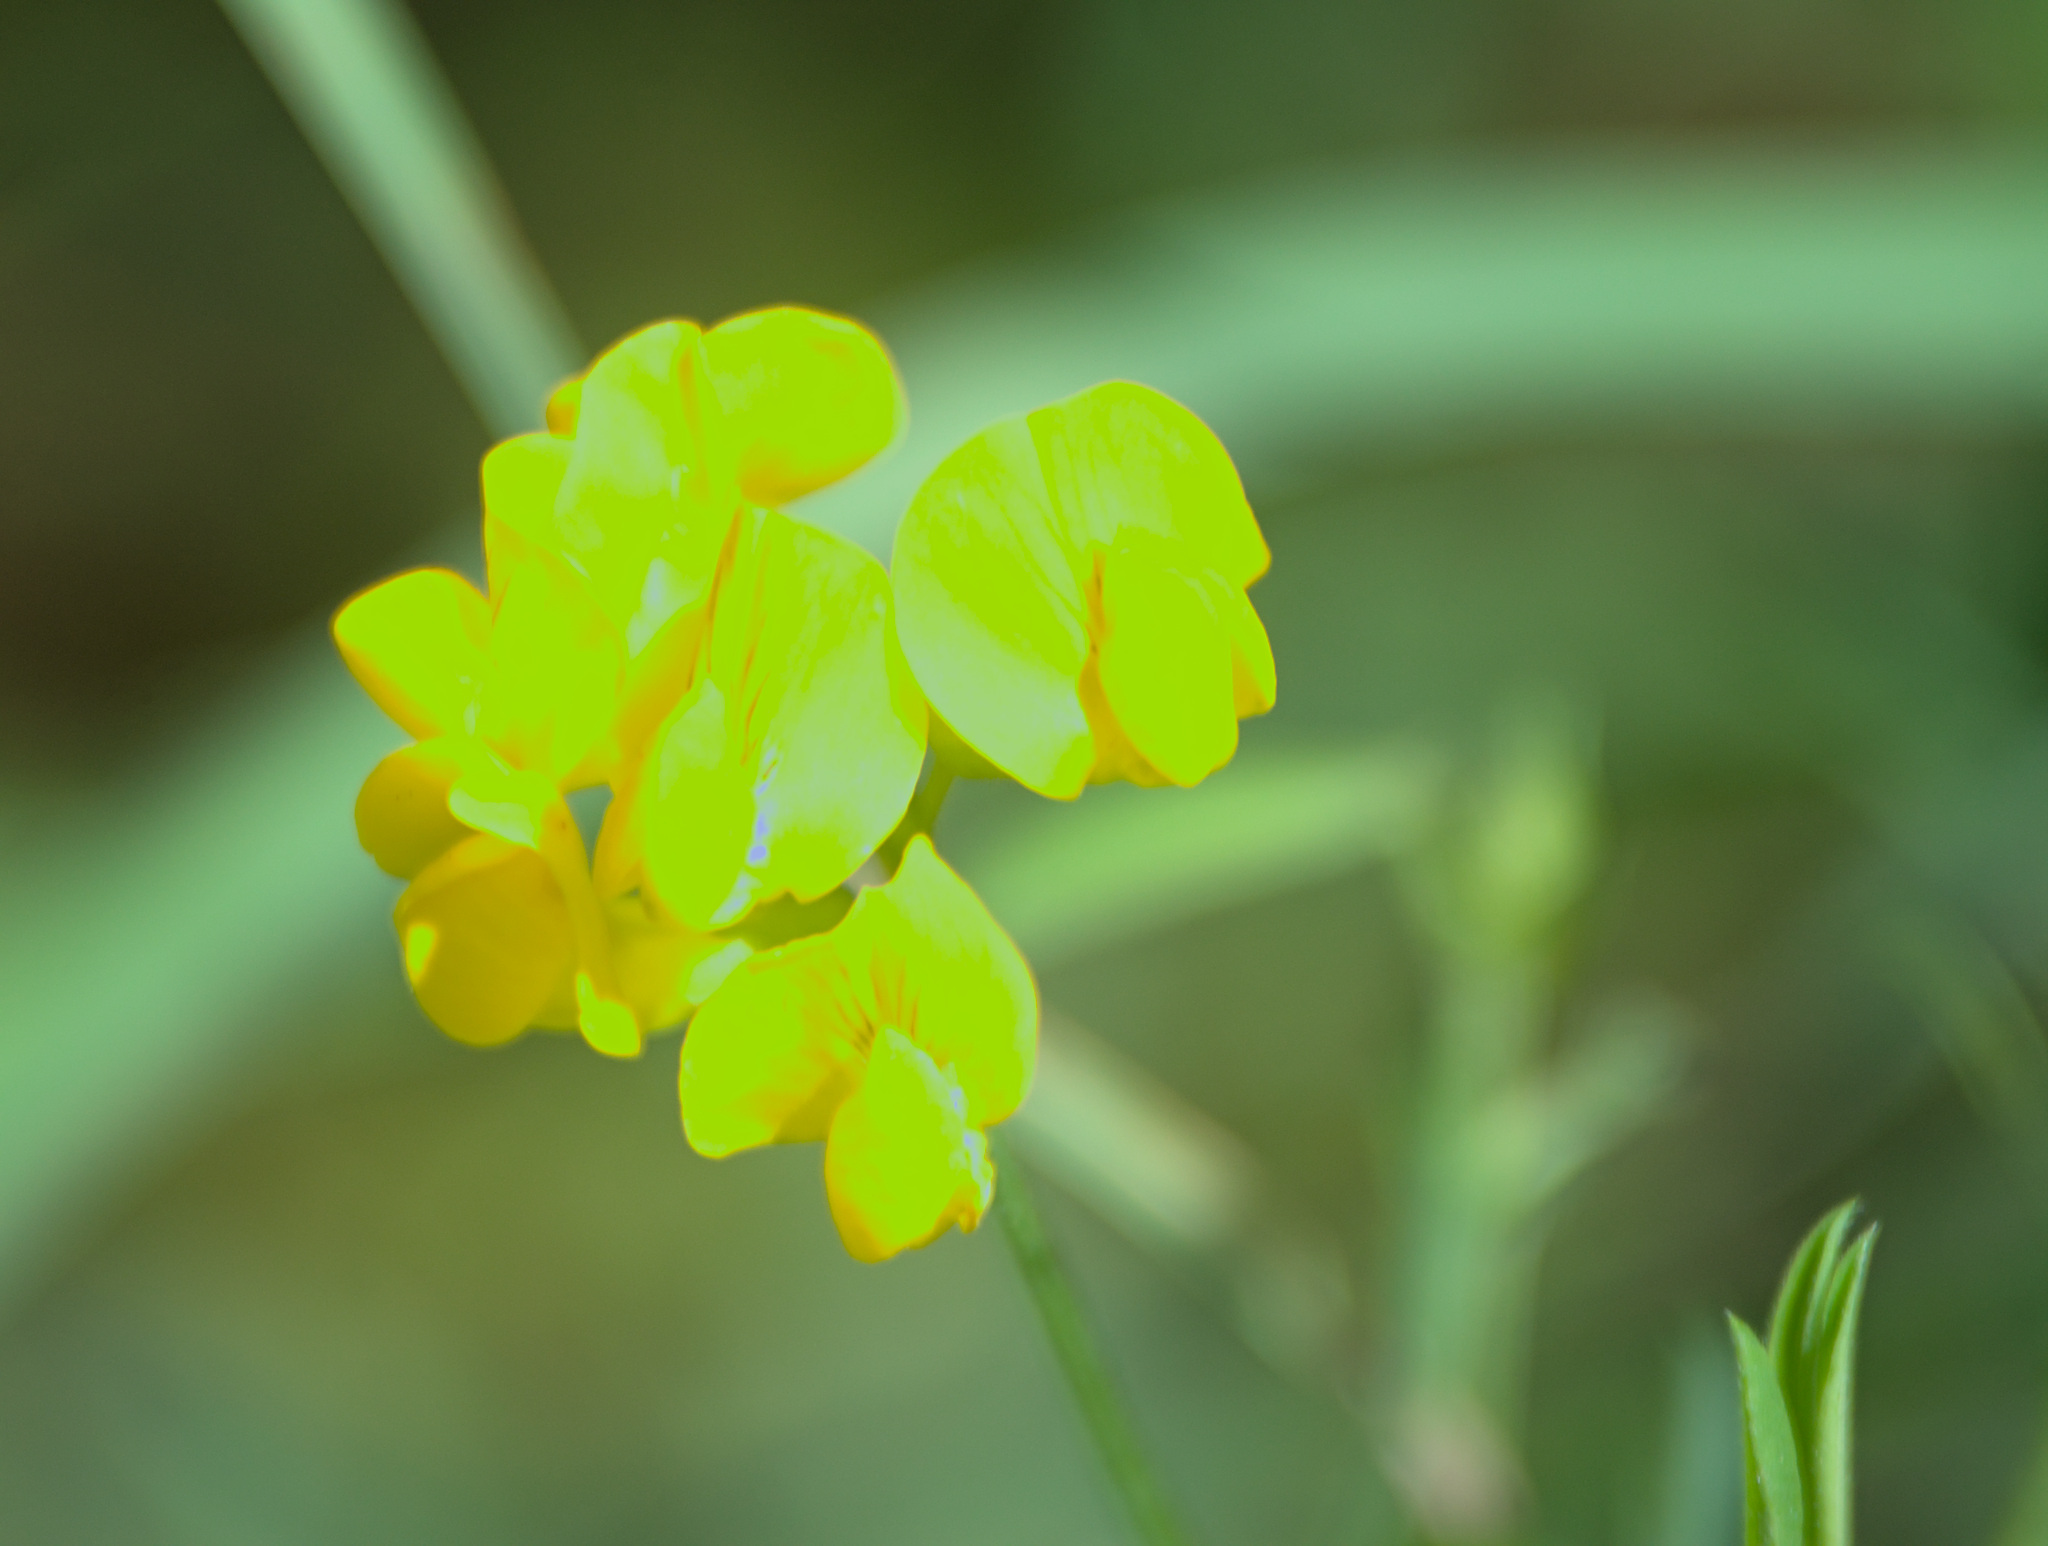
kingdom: Plantae
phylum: Tracheophyta
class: Magnoliopsida
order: Fabales
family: Fabaceae
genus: Lathyrus
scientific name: Lathyrus pratensis
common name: Meadow vetchling
